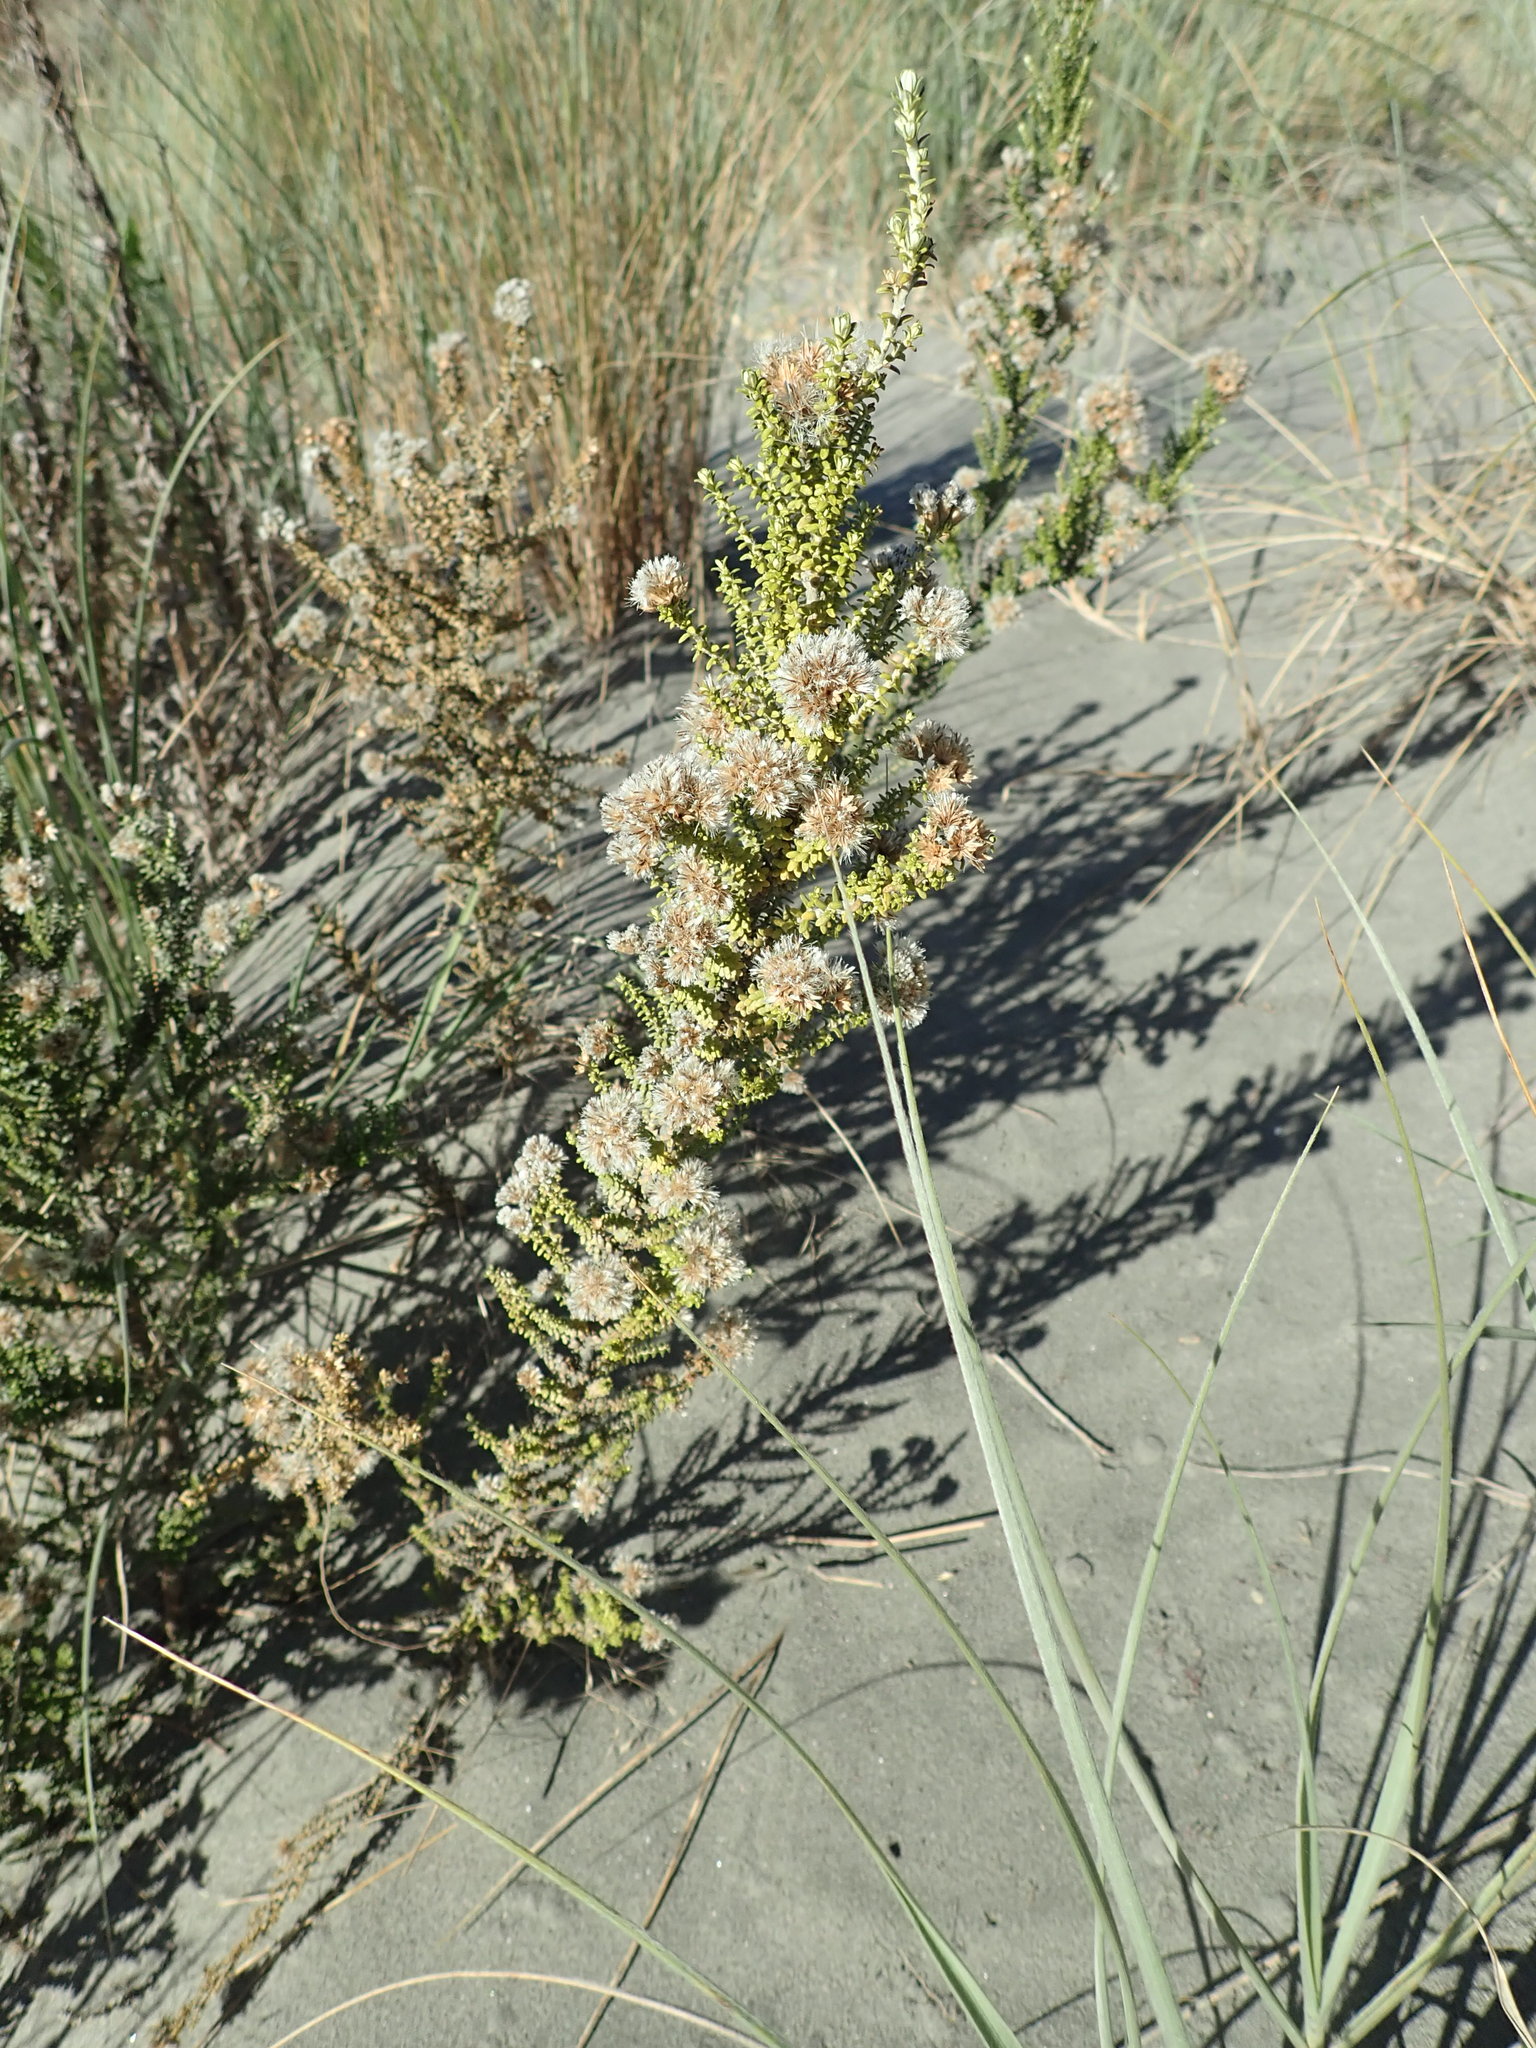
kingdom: Plantae
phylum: Tracheophyta
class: Magnoliopsida
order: Asterales
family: Asteraceae
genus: Ozothamnus
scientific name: Ozothamnus leptophyllus
